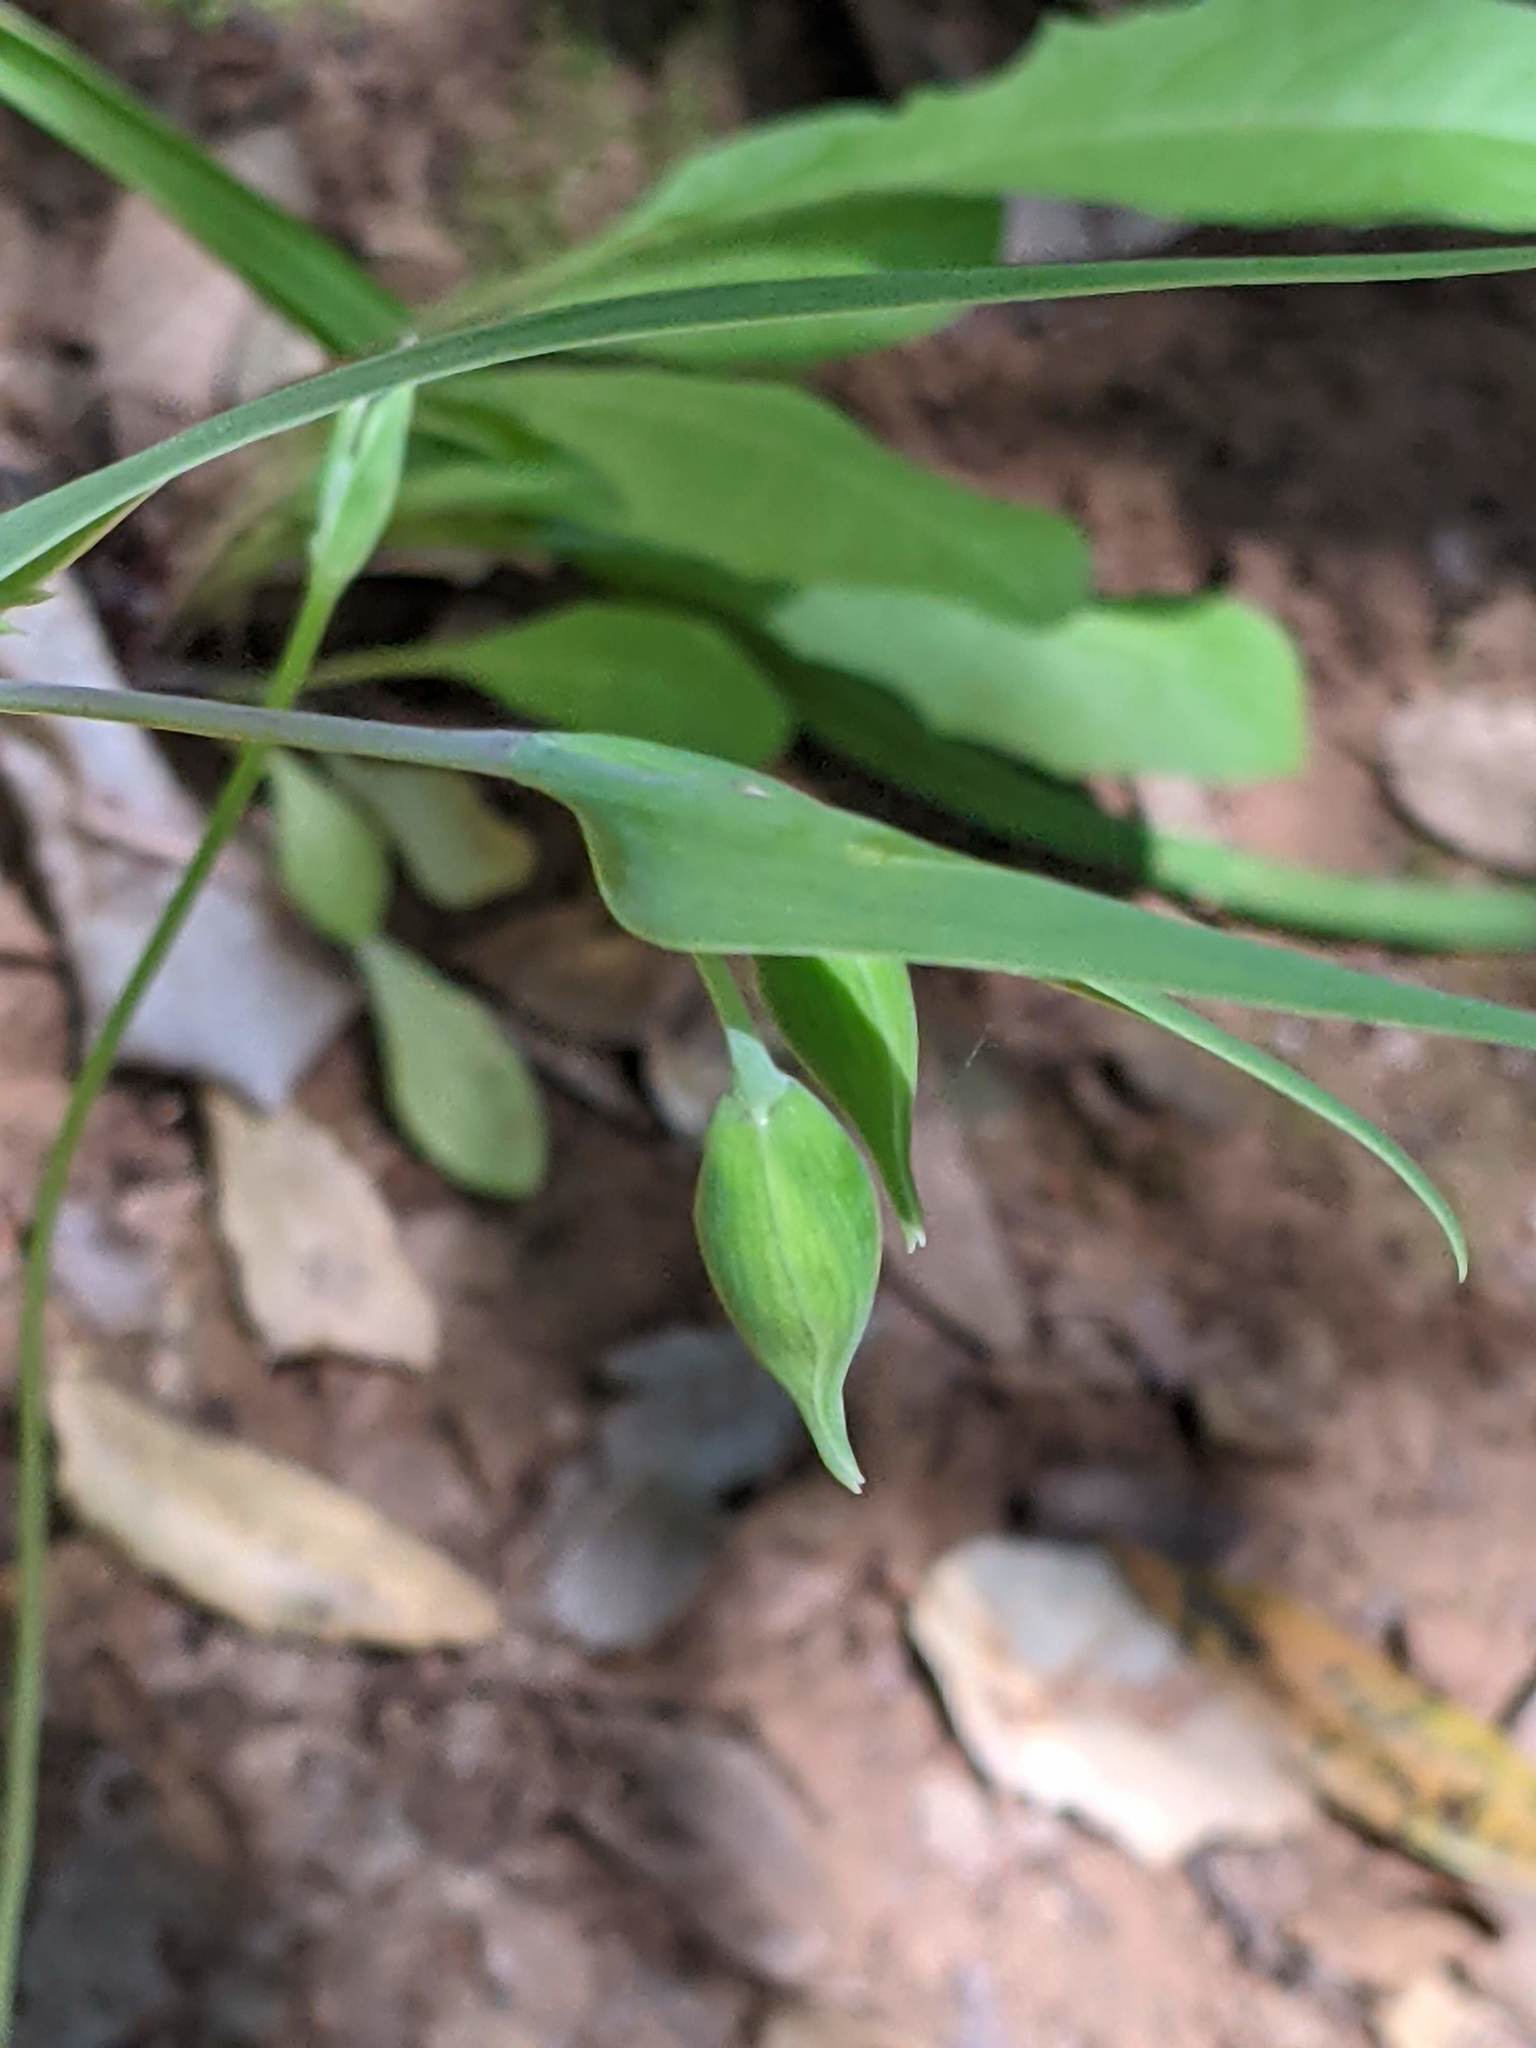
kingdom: Plantae
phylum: Tracheophyta
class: Liliopsida
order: Liliales
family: Liliaceae
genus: Calochortus
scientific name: Calochortus albus
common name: Fairy-lantern
